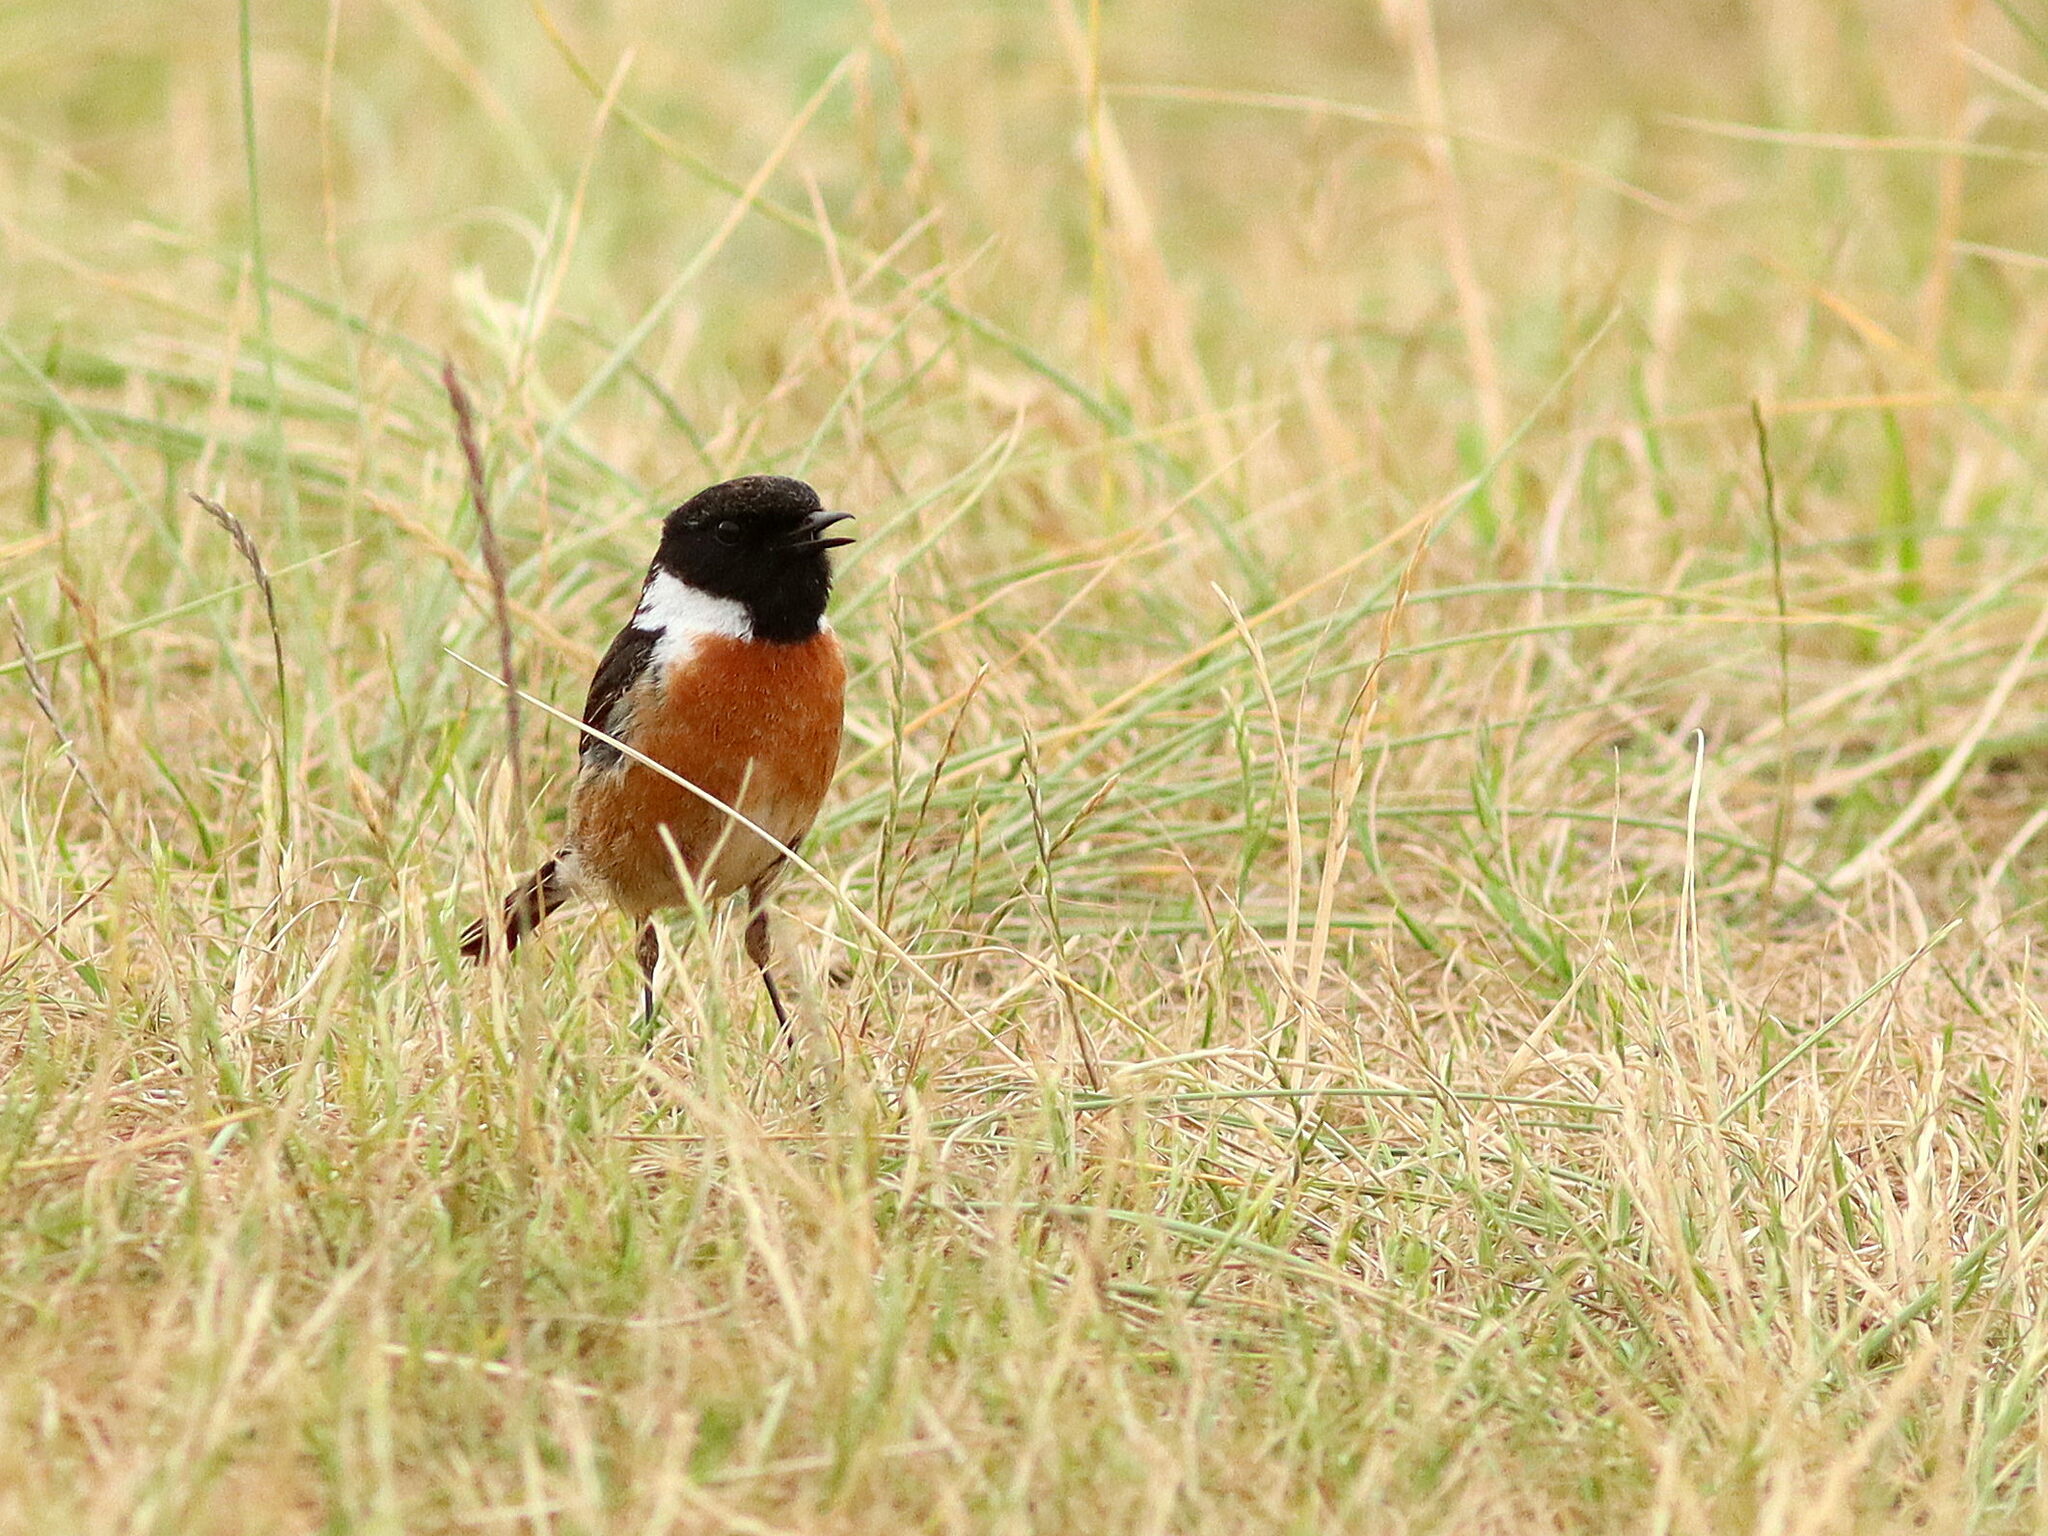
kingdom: Animalia
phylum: Chordata
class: Aves
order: Passeriformes
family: Muscicapidae
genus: Saxicola
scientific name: Saxicola rubicola
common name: European stonechat
